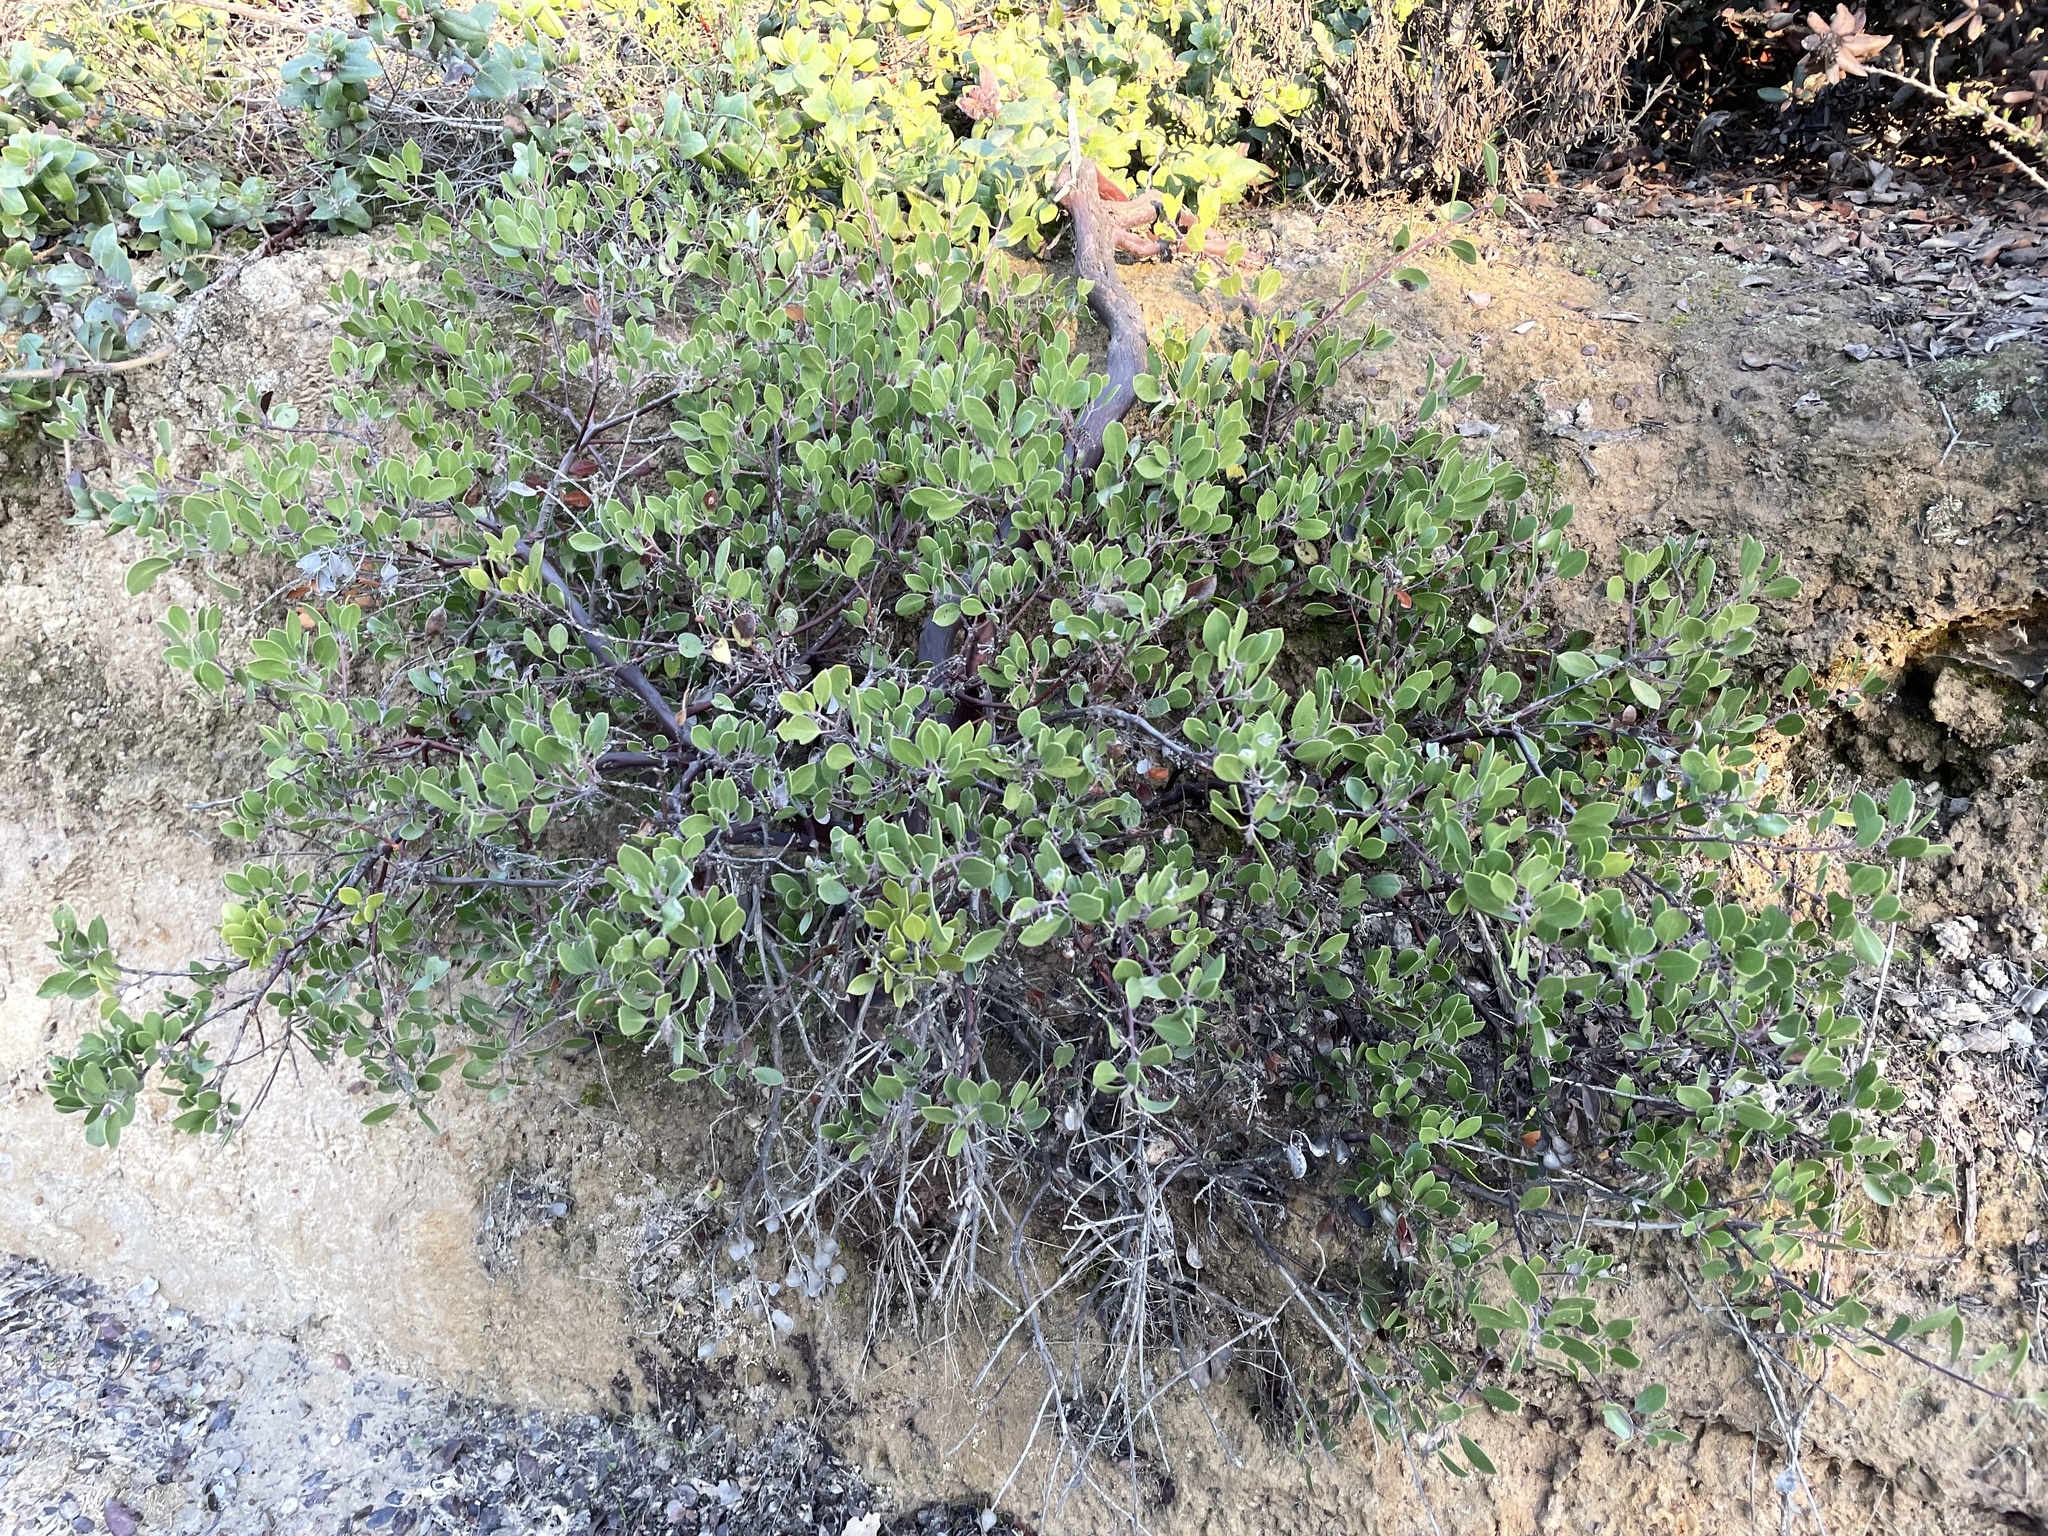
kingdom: Plantae
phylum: Tracheophyta
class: Magnoliopsida
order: Ericales
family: Ericaceae
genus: Arctostaphylos
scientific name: Arctostaphylos hookeri
